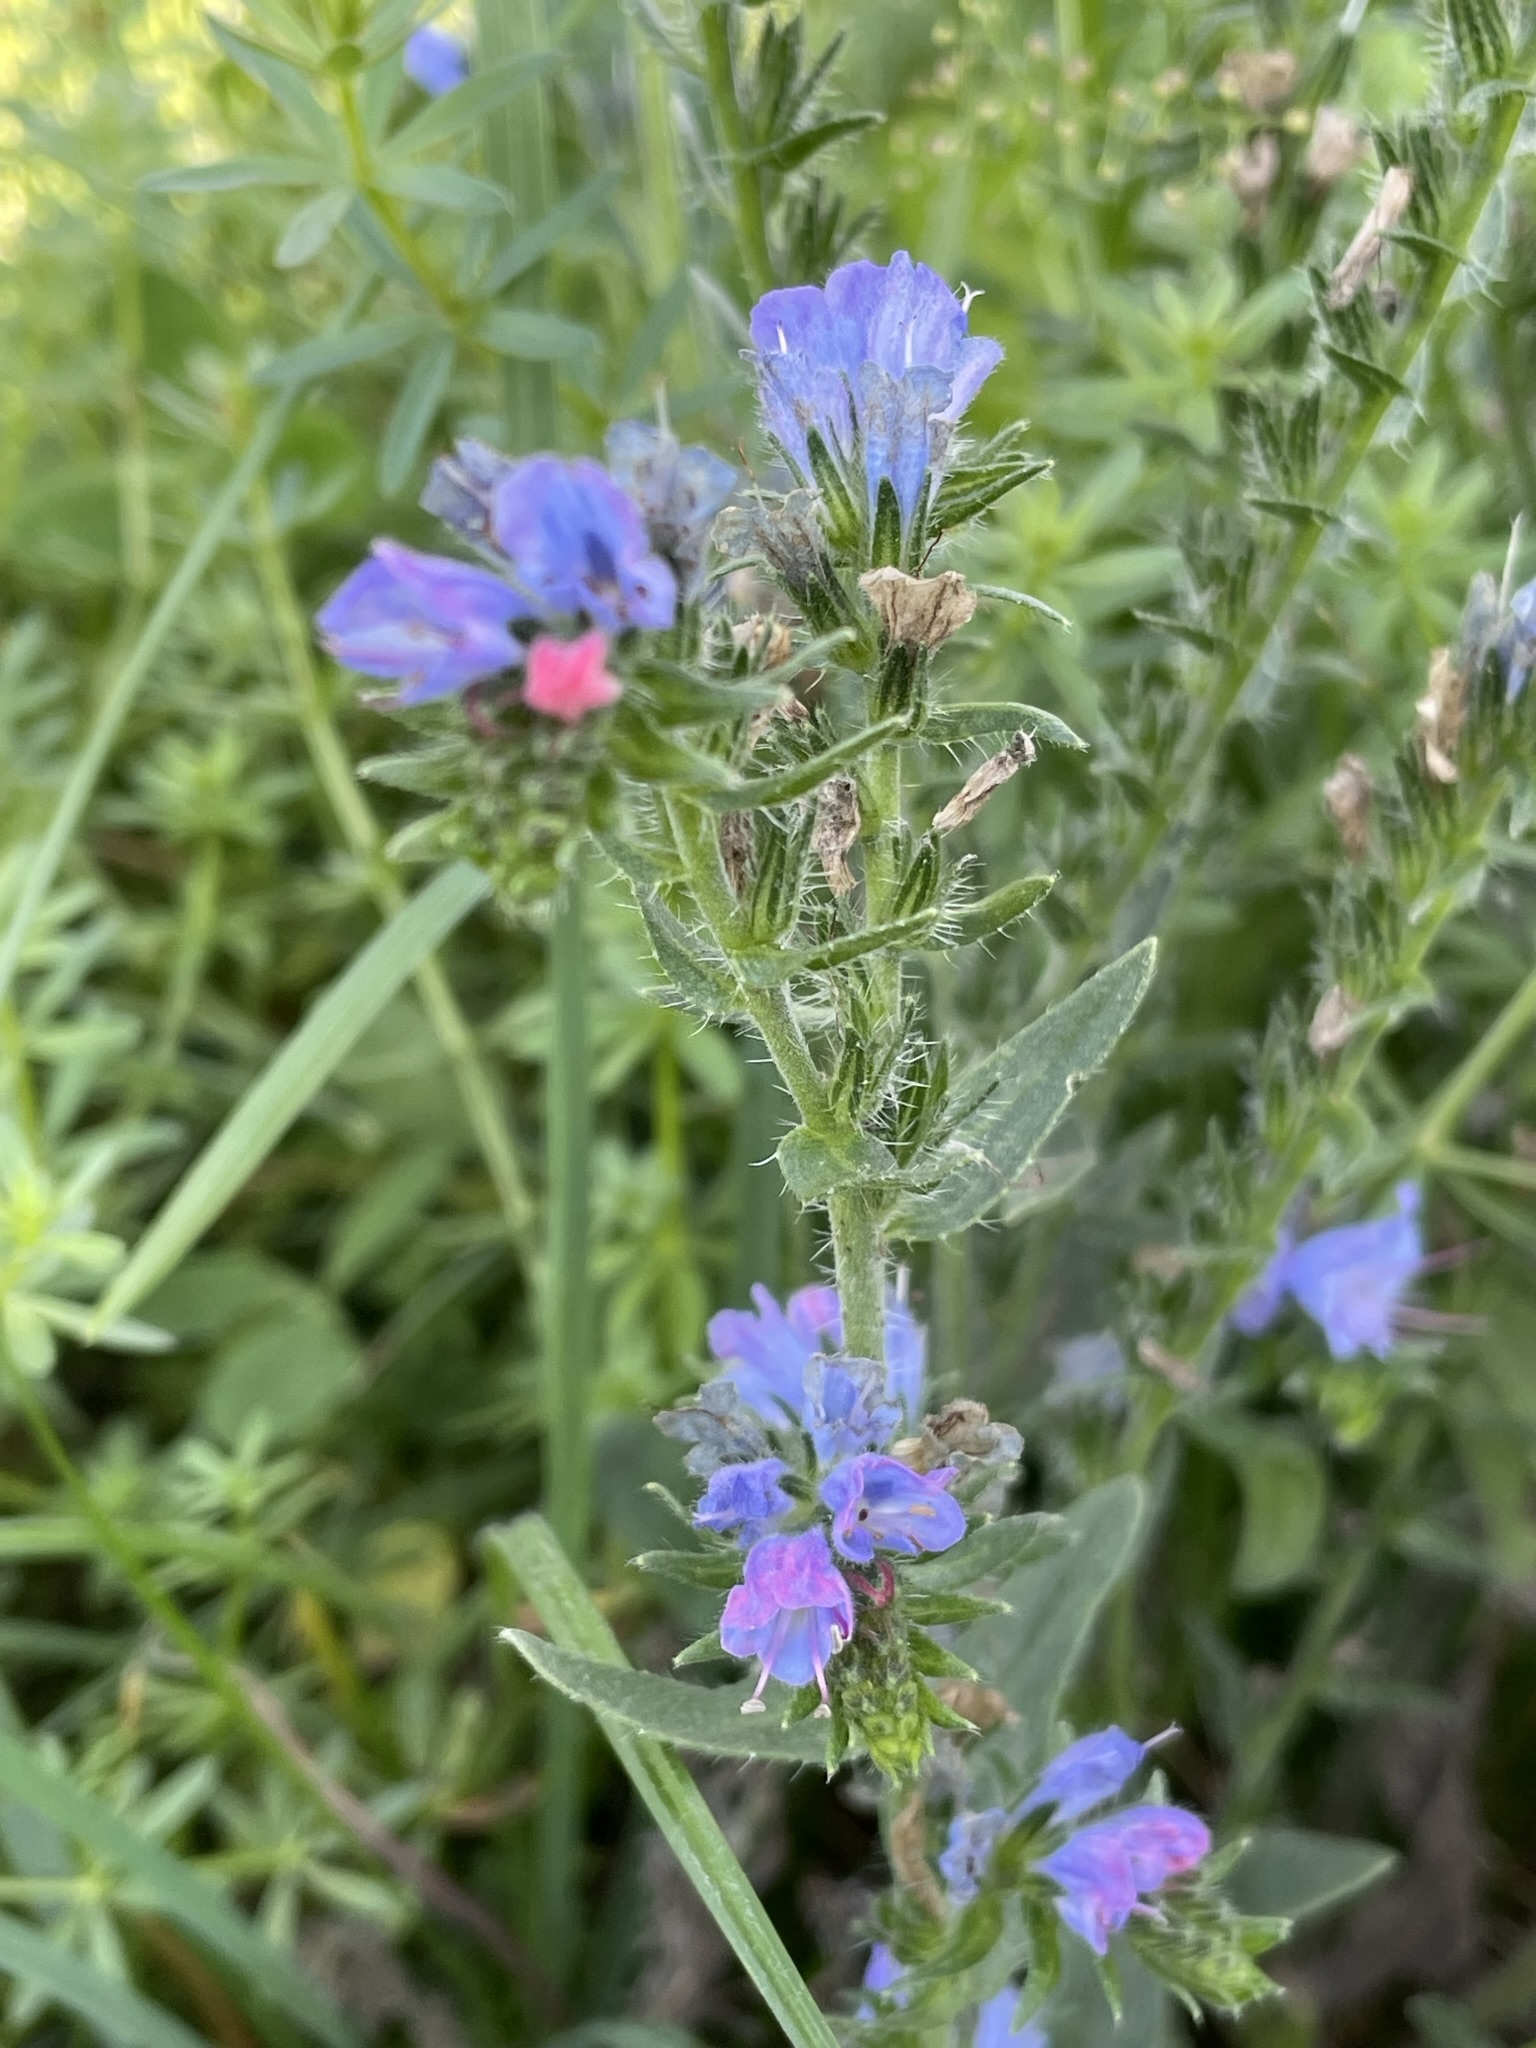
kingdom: Plantae
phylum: Tracheophyta
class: Magnoliopsida
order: Boraginales
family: Boraginaceae
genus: Echium
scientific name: Echium vulgare
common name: Common viper's bugloss
